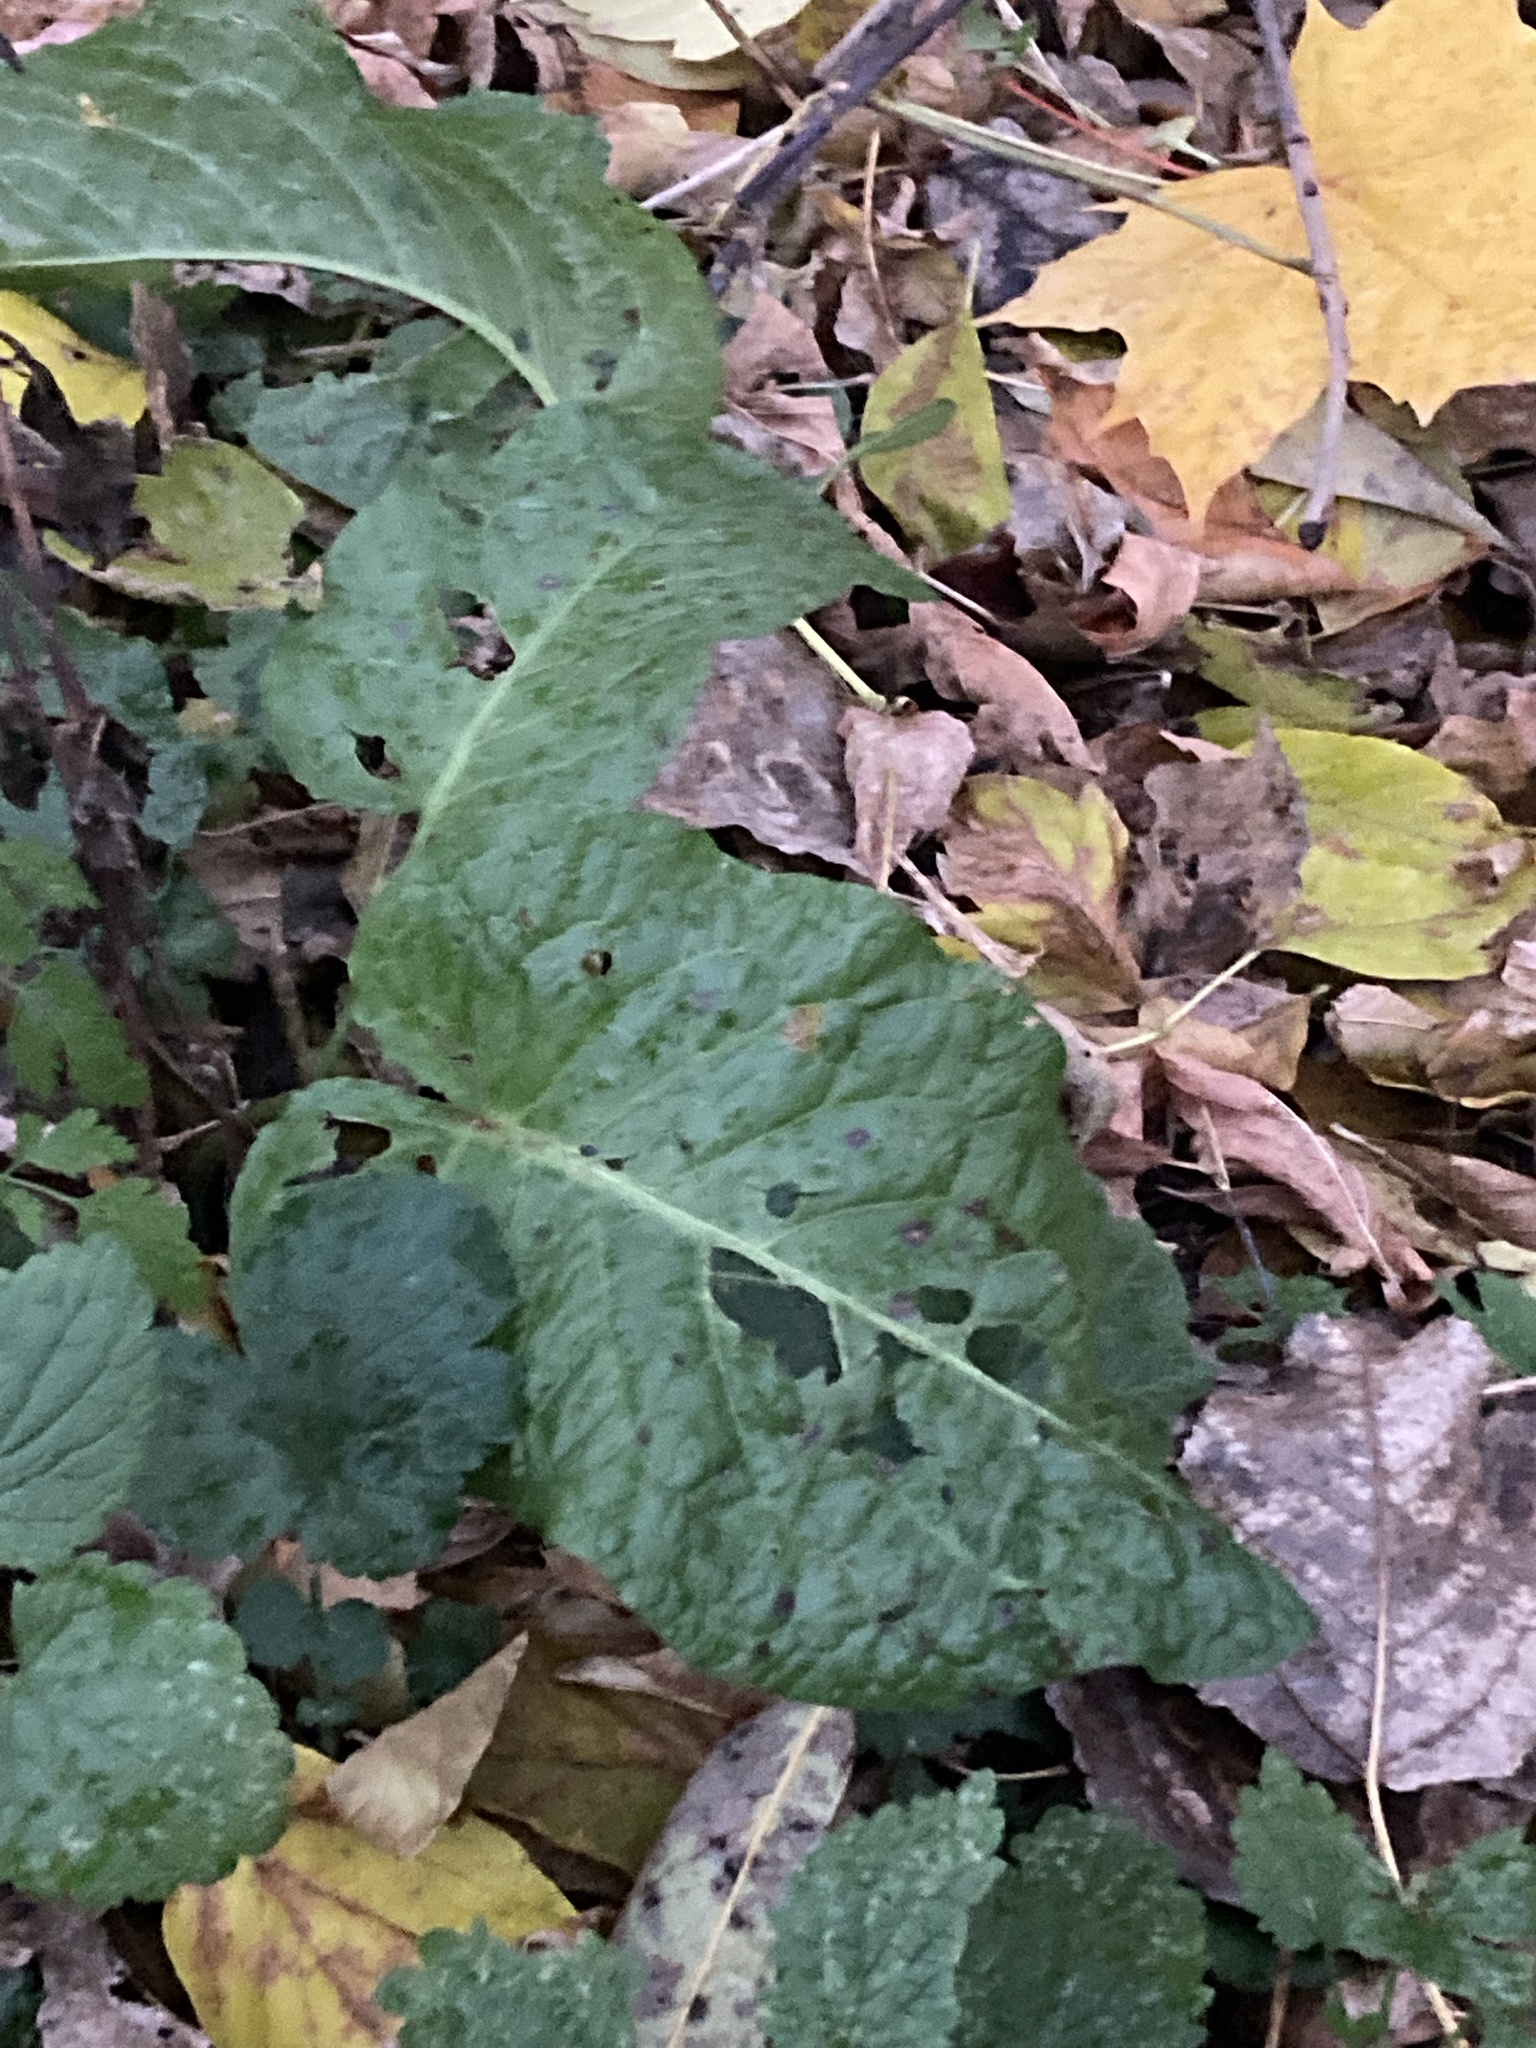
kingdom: Plantae
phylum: Tracheophyta
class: Magnoliopsida
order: Caryophyllales
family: Polygonaceae
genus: Rumex
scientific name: Rumex obtusifolius
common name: Bitter dock
